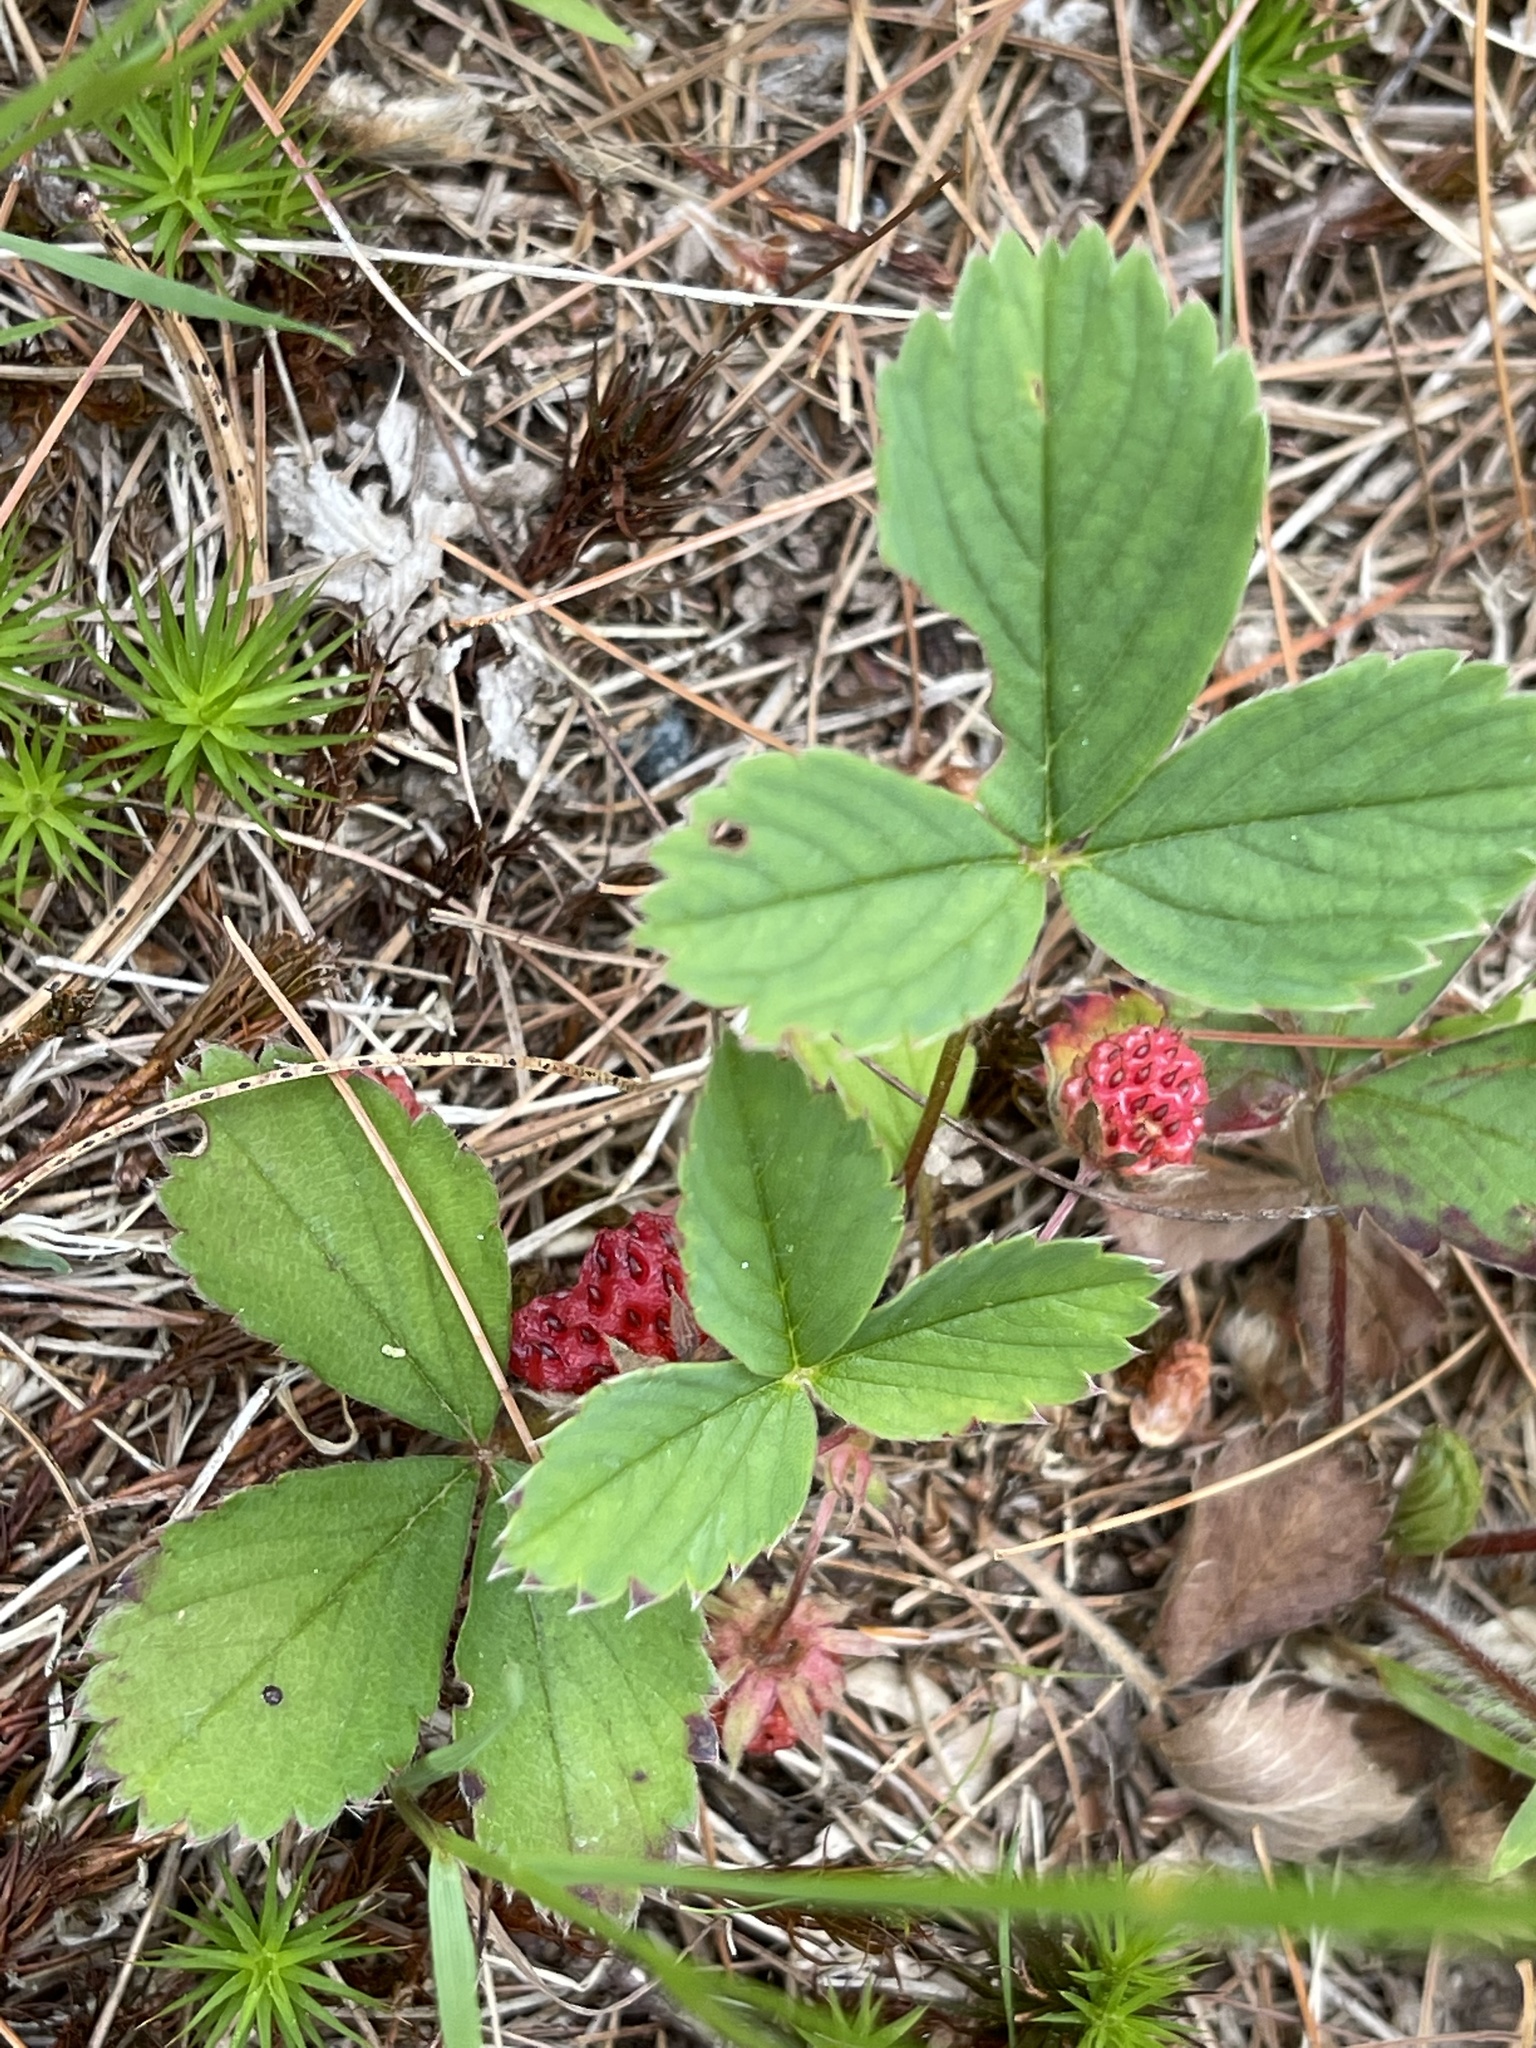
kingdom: Plantae
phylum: Tracheophyta
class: Magnoliopsida
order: Rosales
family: Rosaceae
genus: Fragaria
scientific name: Fragaria virginiana
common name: Thickleaved wild strawberry
